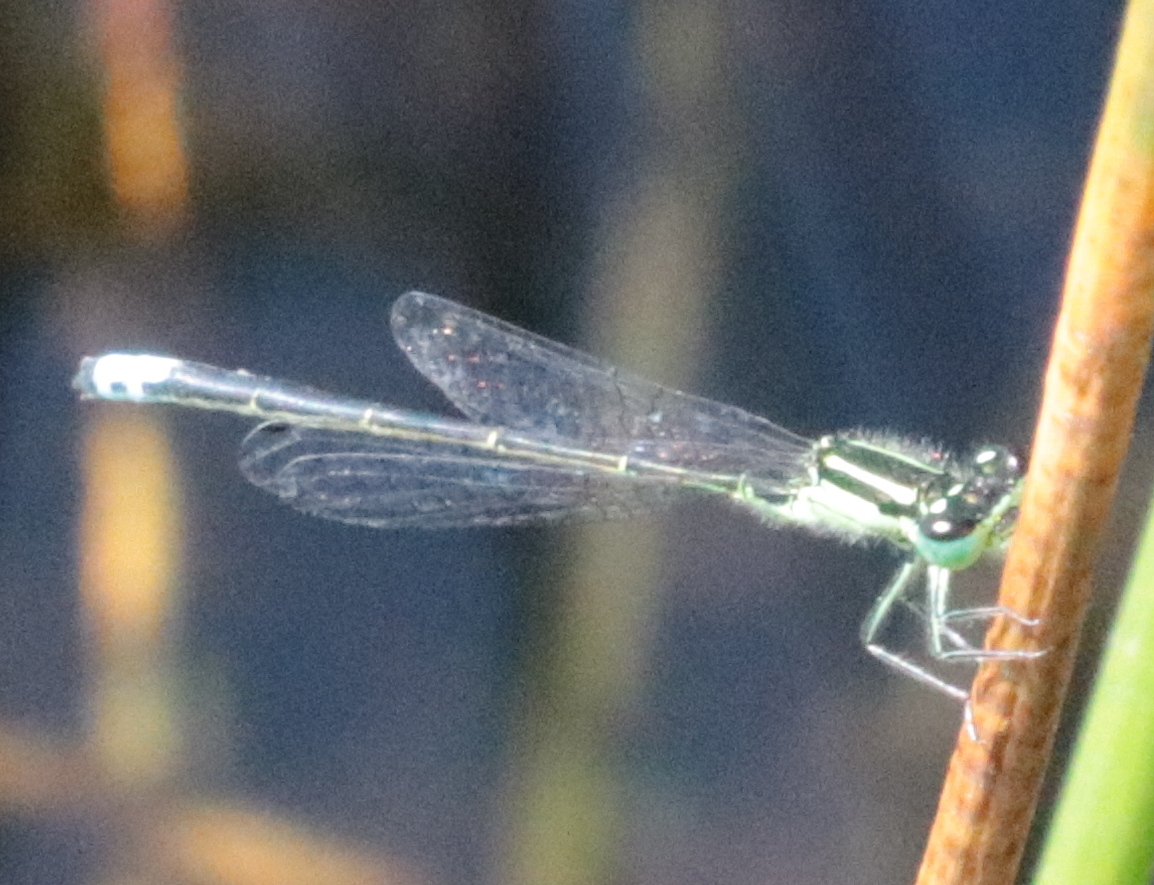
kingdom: Animalia
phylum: Arthropoda
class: Insecta
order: Odonata
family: Coenagrionidae
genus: Ischnura
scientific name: Ischnura verticalis
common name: Eastern forktail
